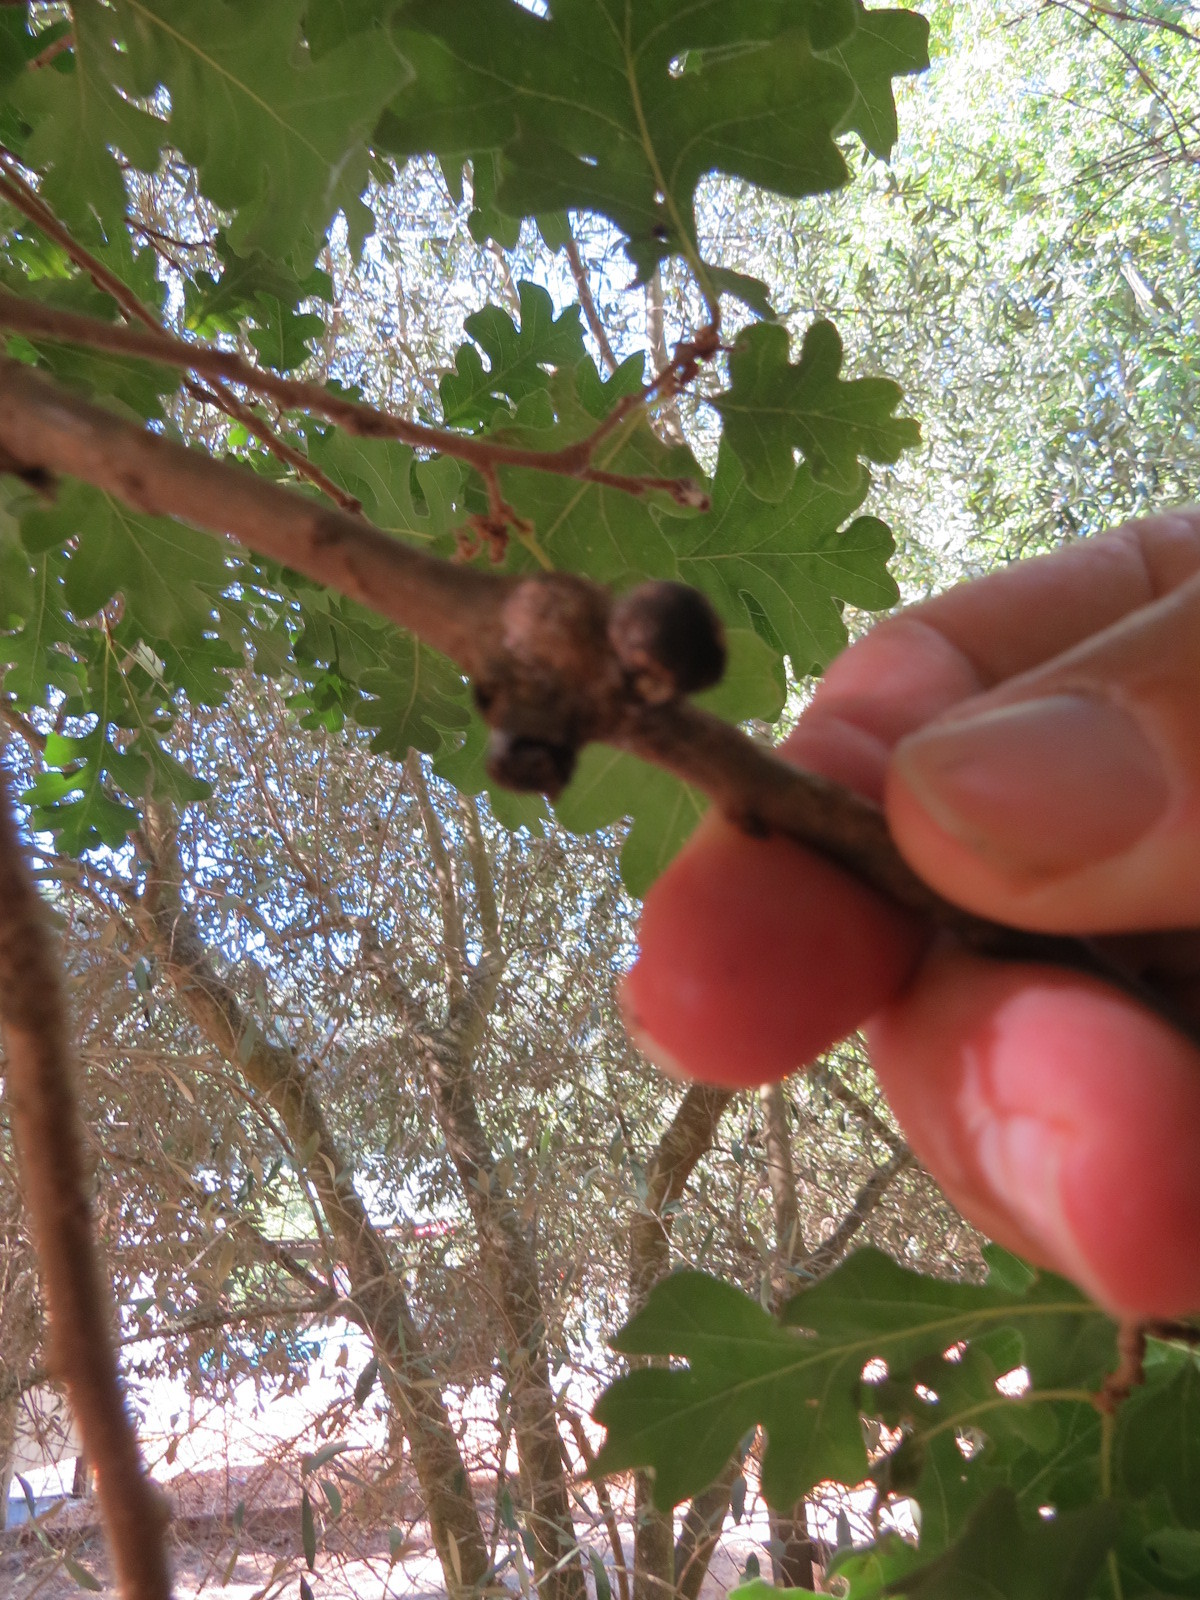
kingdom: Animalia
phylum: Arthropoda
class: Insecta
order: Hymenoptera
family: Cynipidae
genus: Disholcaspis
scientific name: Disholcaspis
